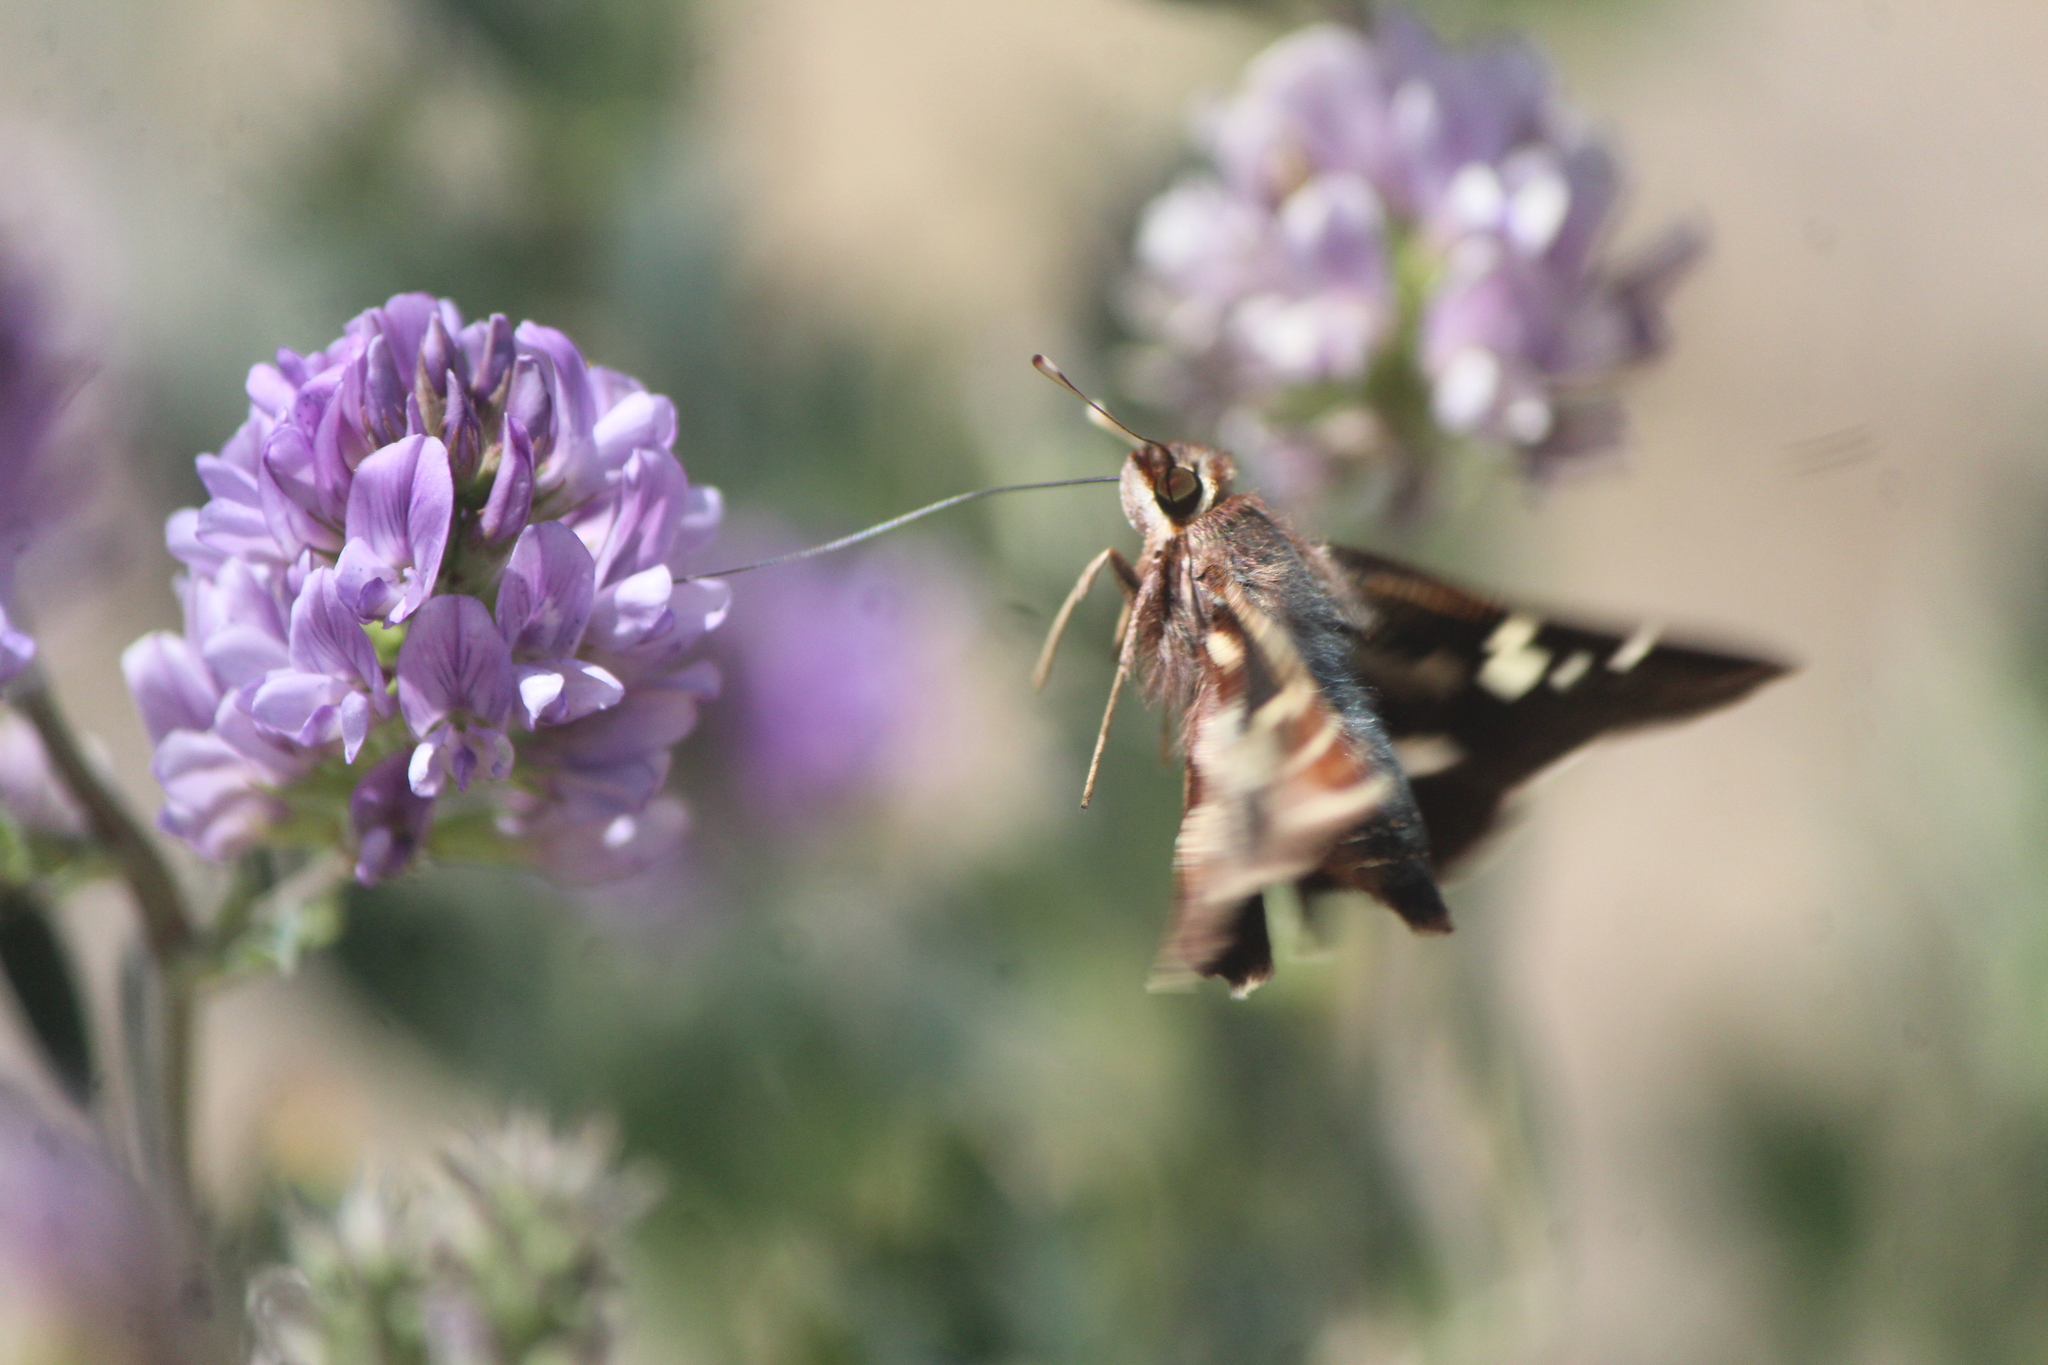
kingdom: Animalia
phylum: Arthropoda
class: Insecta
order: Lepidoptera
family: Hesperiidae
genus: Thespieus
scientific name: Thespieus macareus
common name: Chestnut-marked skipper
